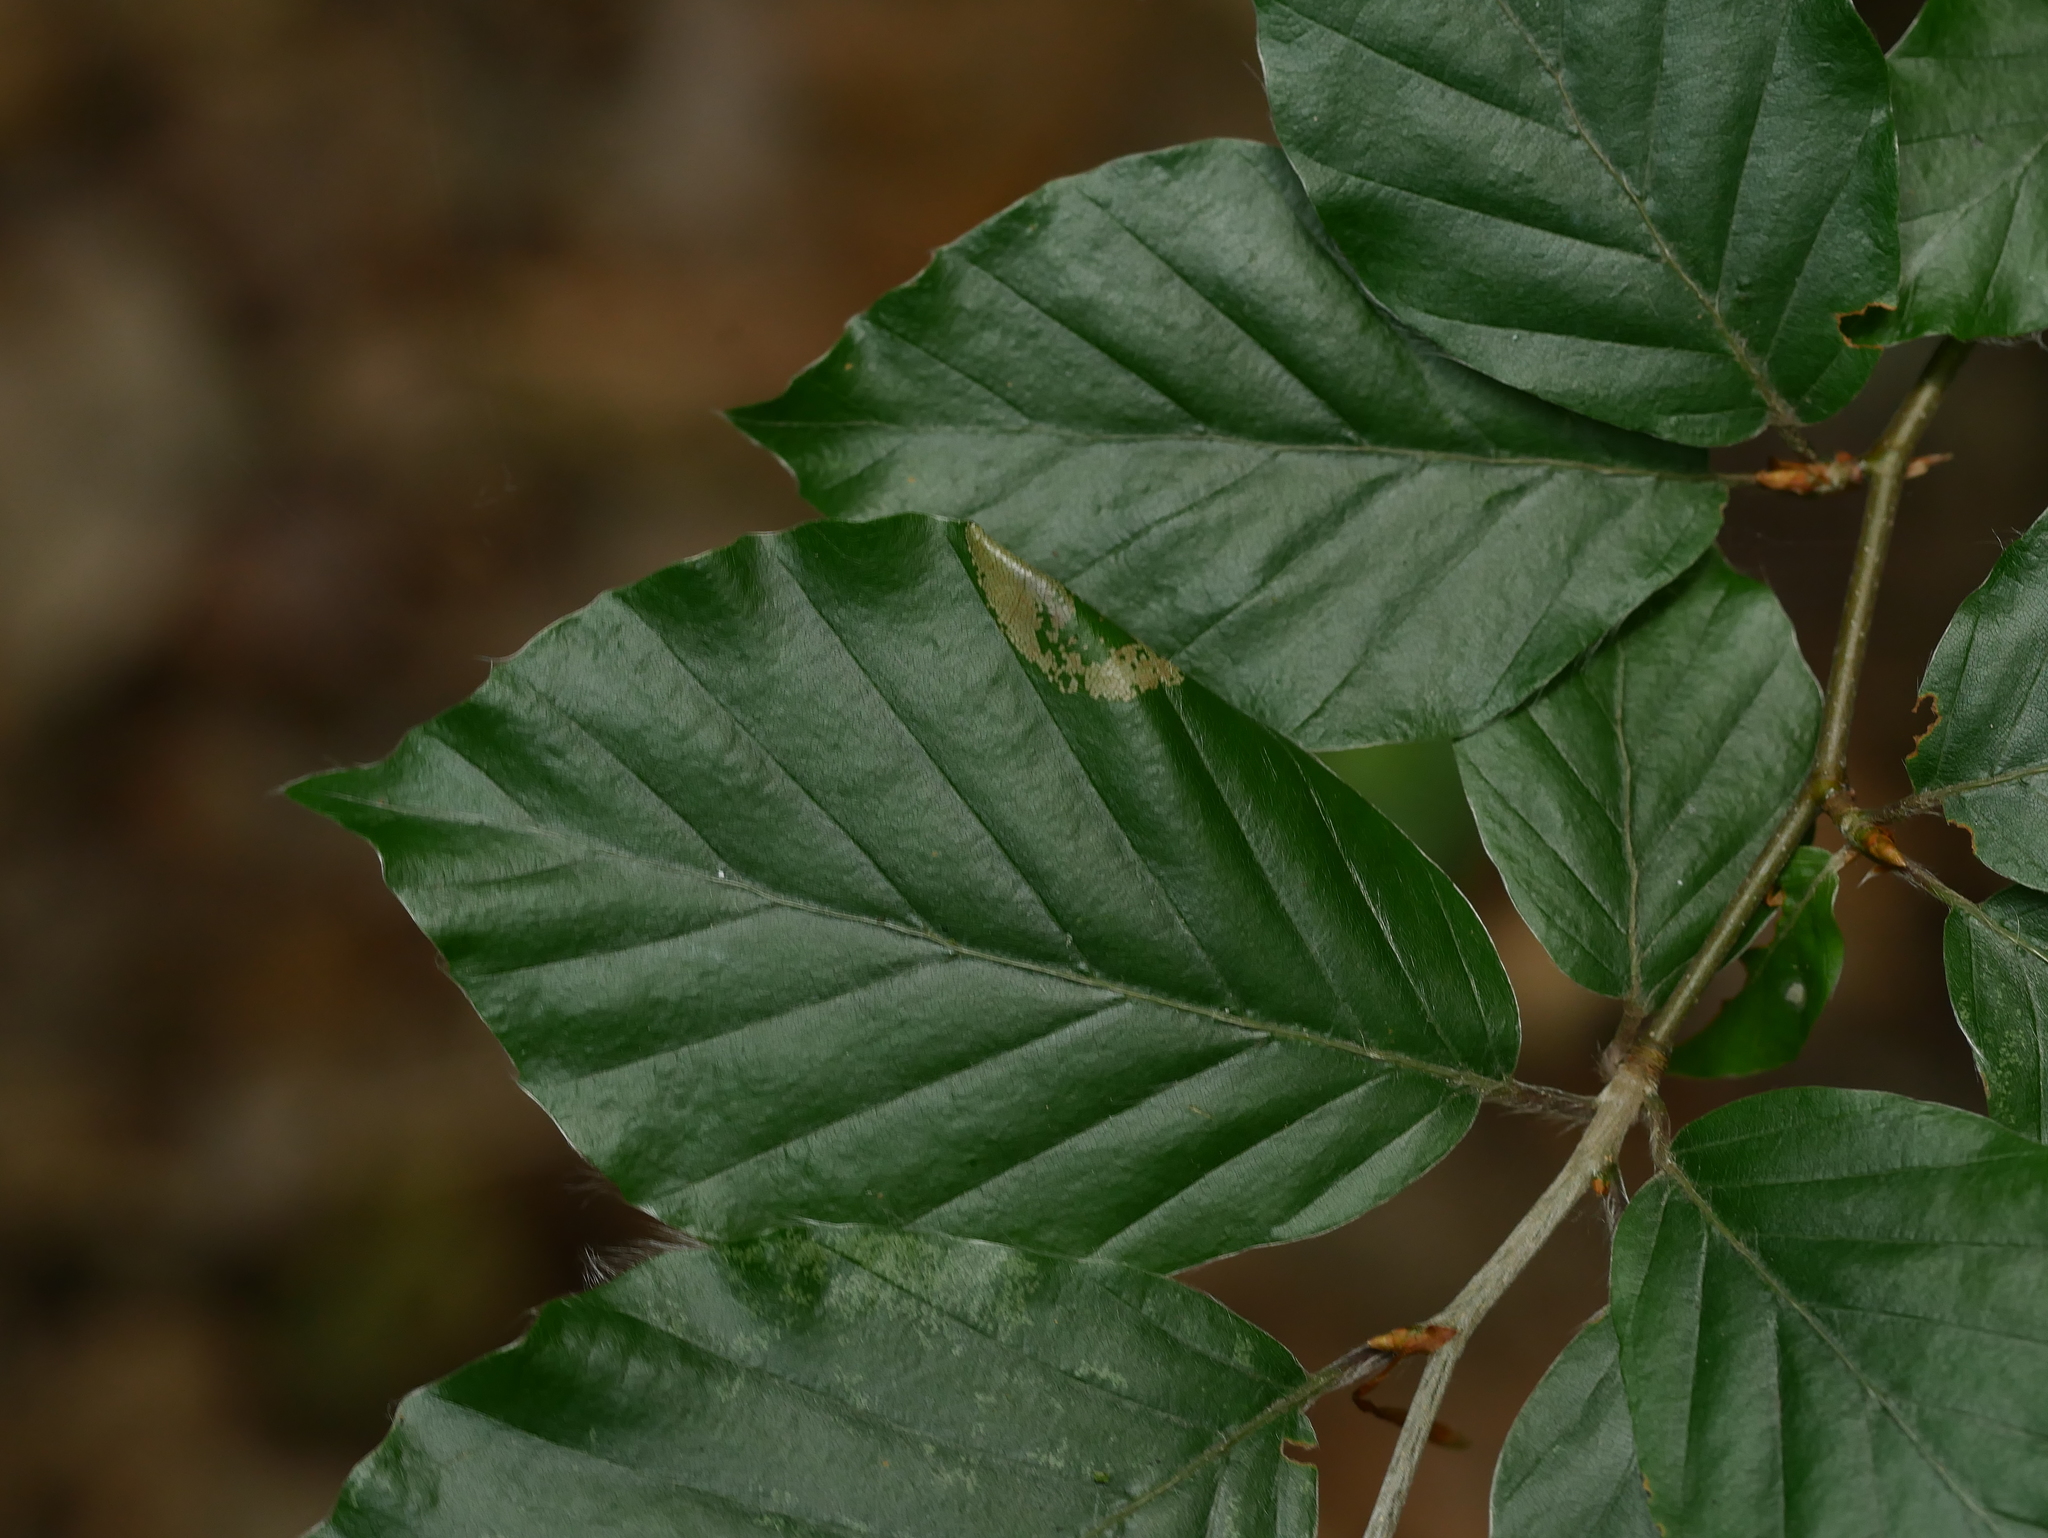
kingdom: Plantae
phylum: Tracheophyta
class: Magnoliopsida
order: Fagales
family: Fagaceae
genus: Fagus
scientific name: Fagus sylvatica
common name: Beech
